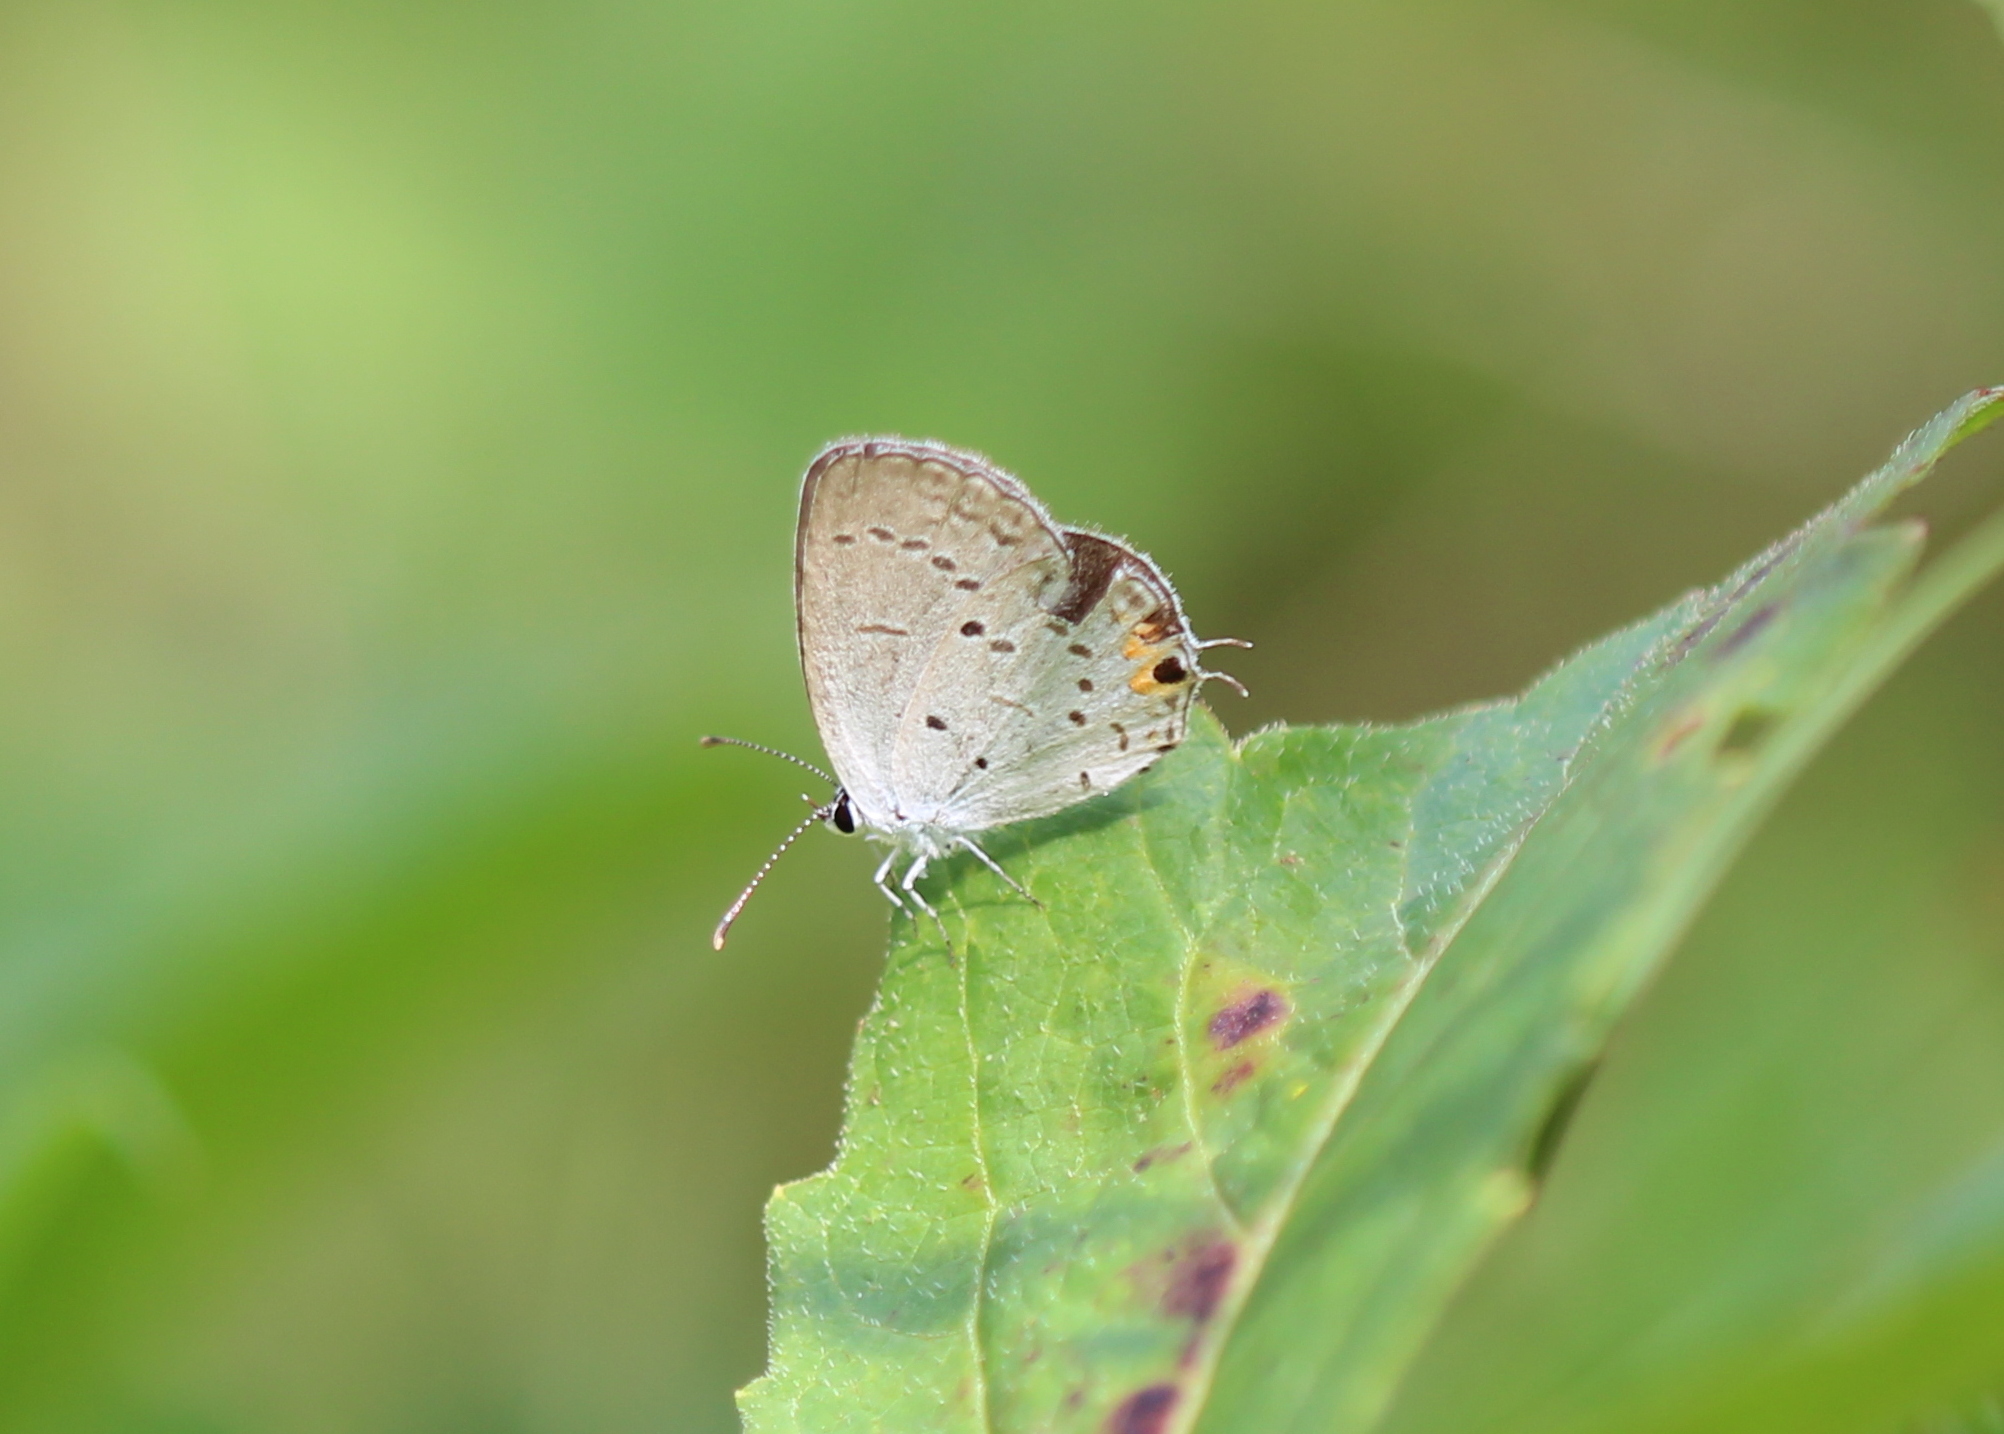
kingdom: Animalia
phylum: Arthropoda
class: Insecta
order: Lepidoptera
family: Lycaenidae
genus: Elkalyce
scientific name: Elkalyce comyntas
